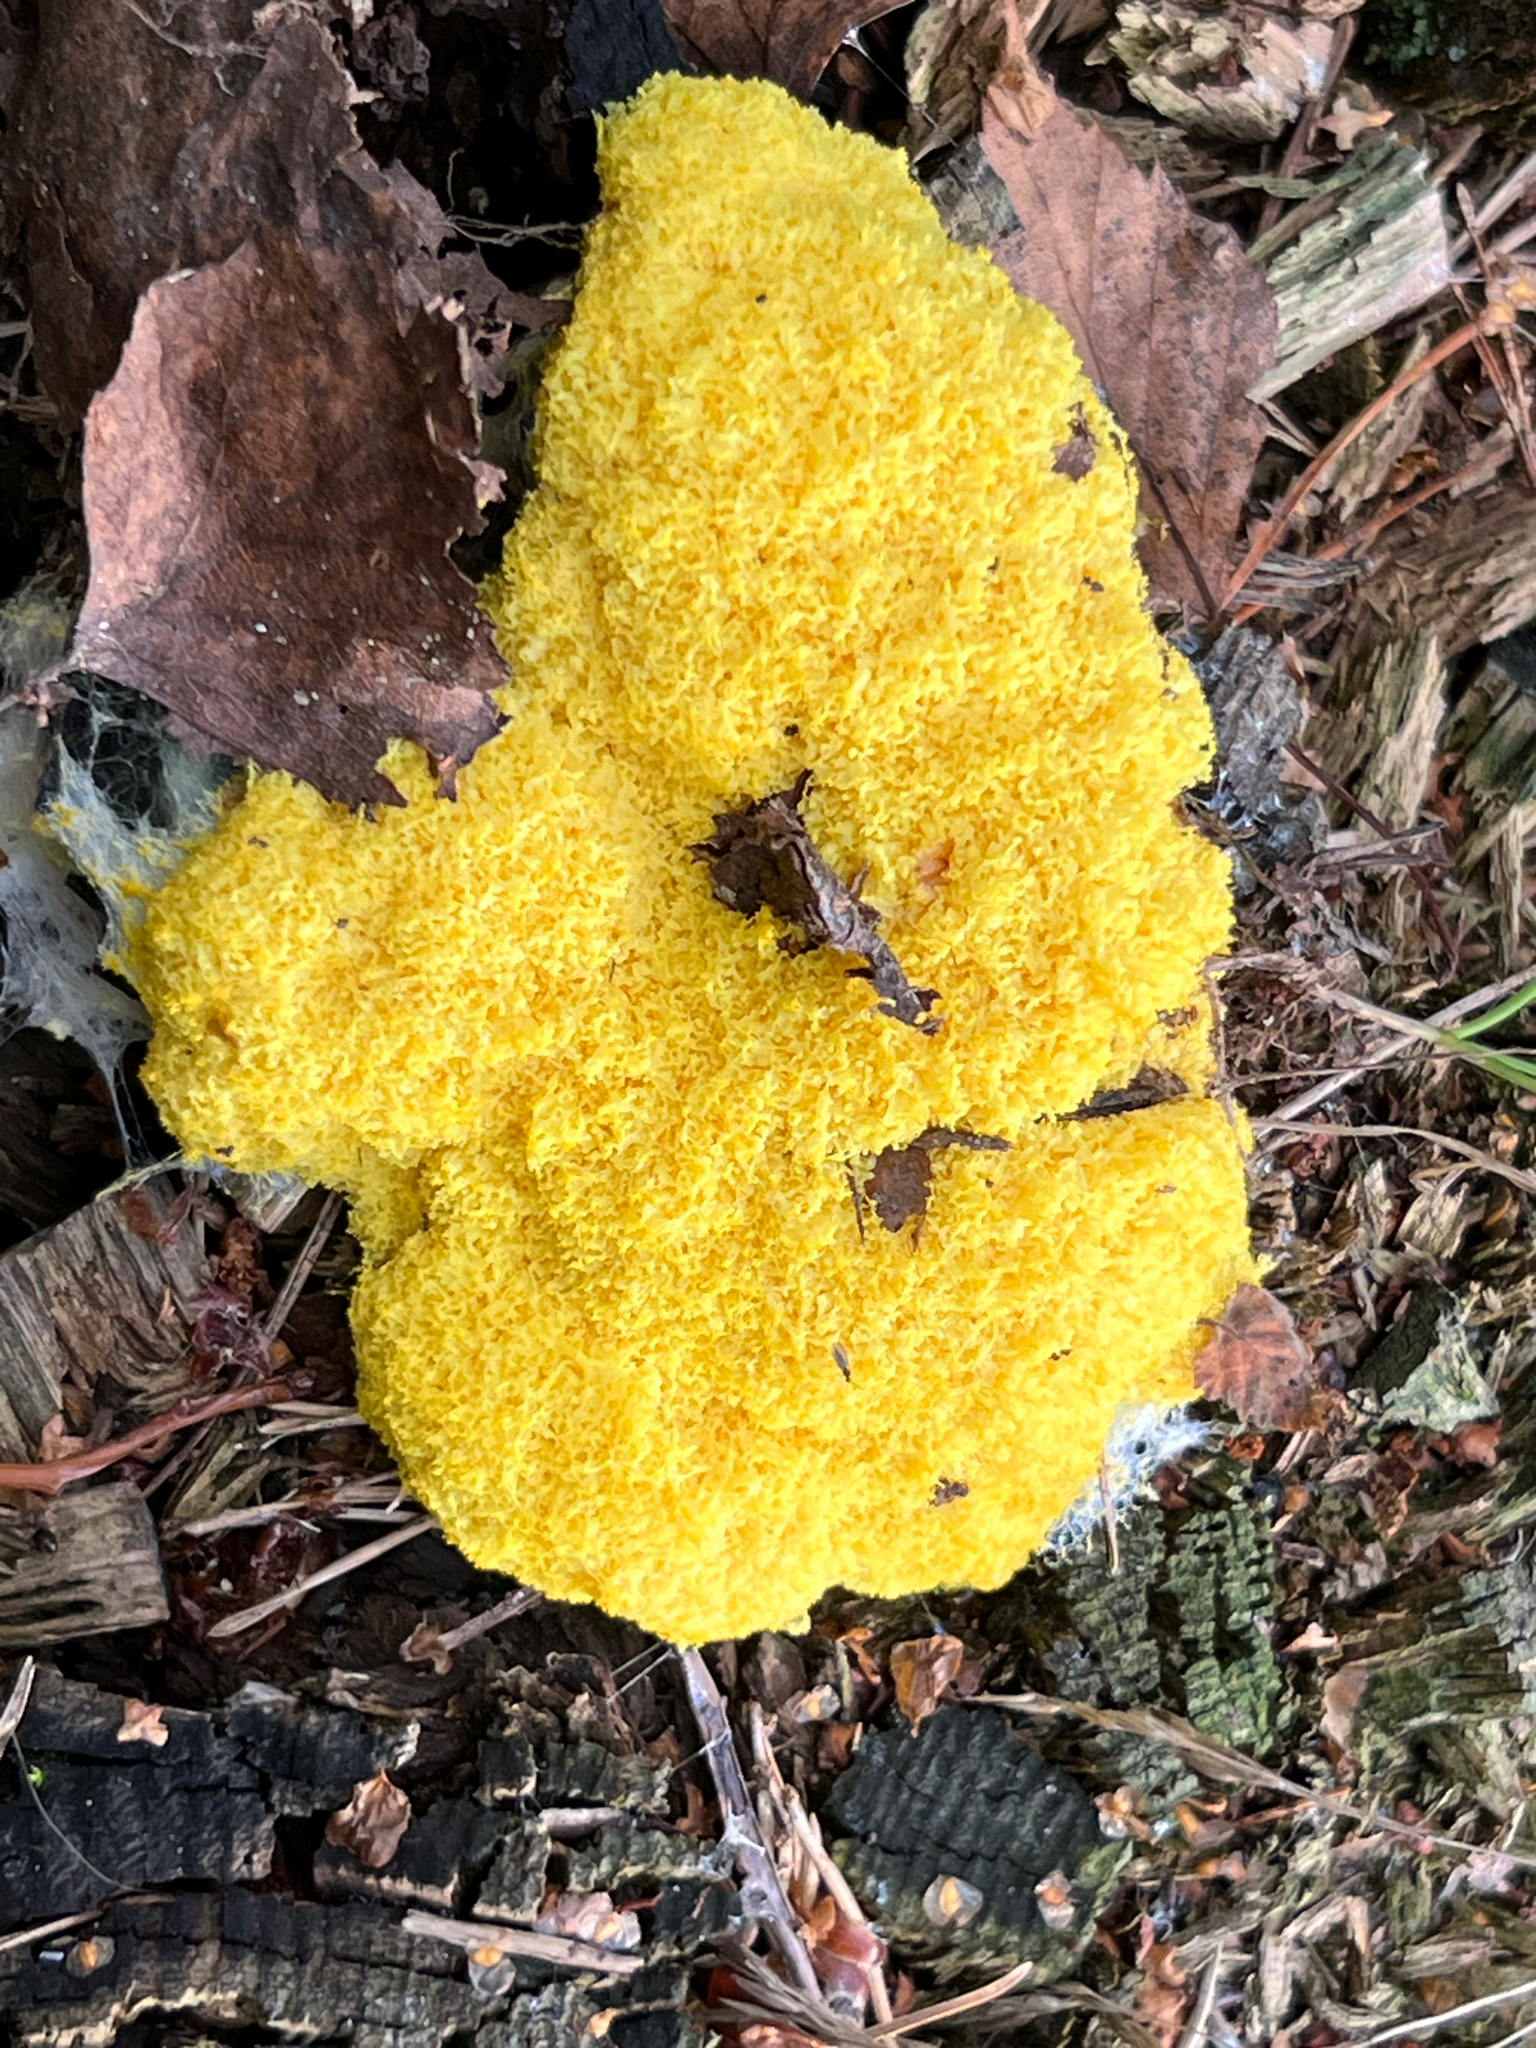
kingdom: Protozoa
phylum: Mycetozoa
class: Myxomycetes
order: Physarales
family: Physaraceae
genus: Fuligo
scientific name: Fuligo septica
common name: Dog vomit slime mold
